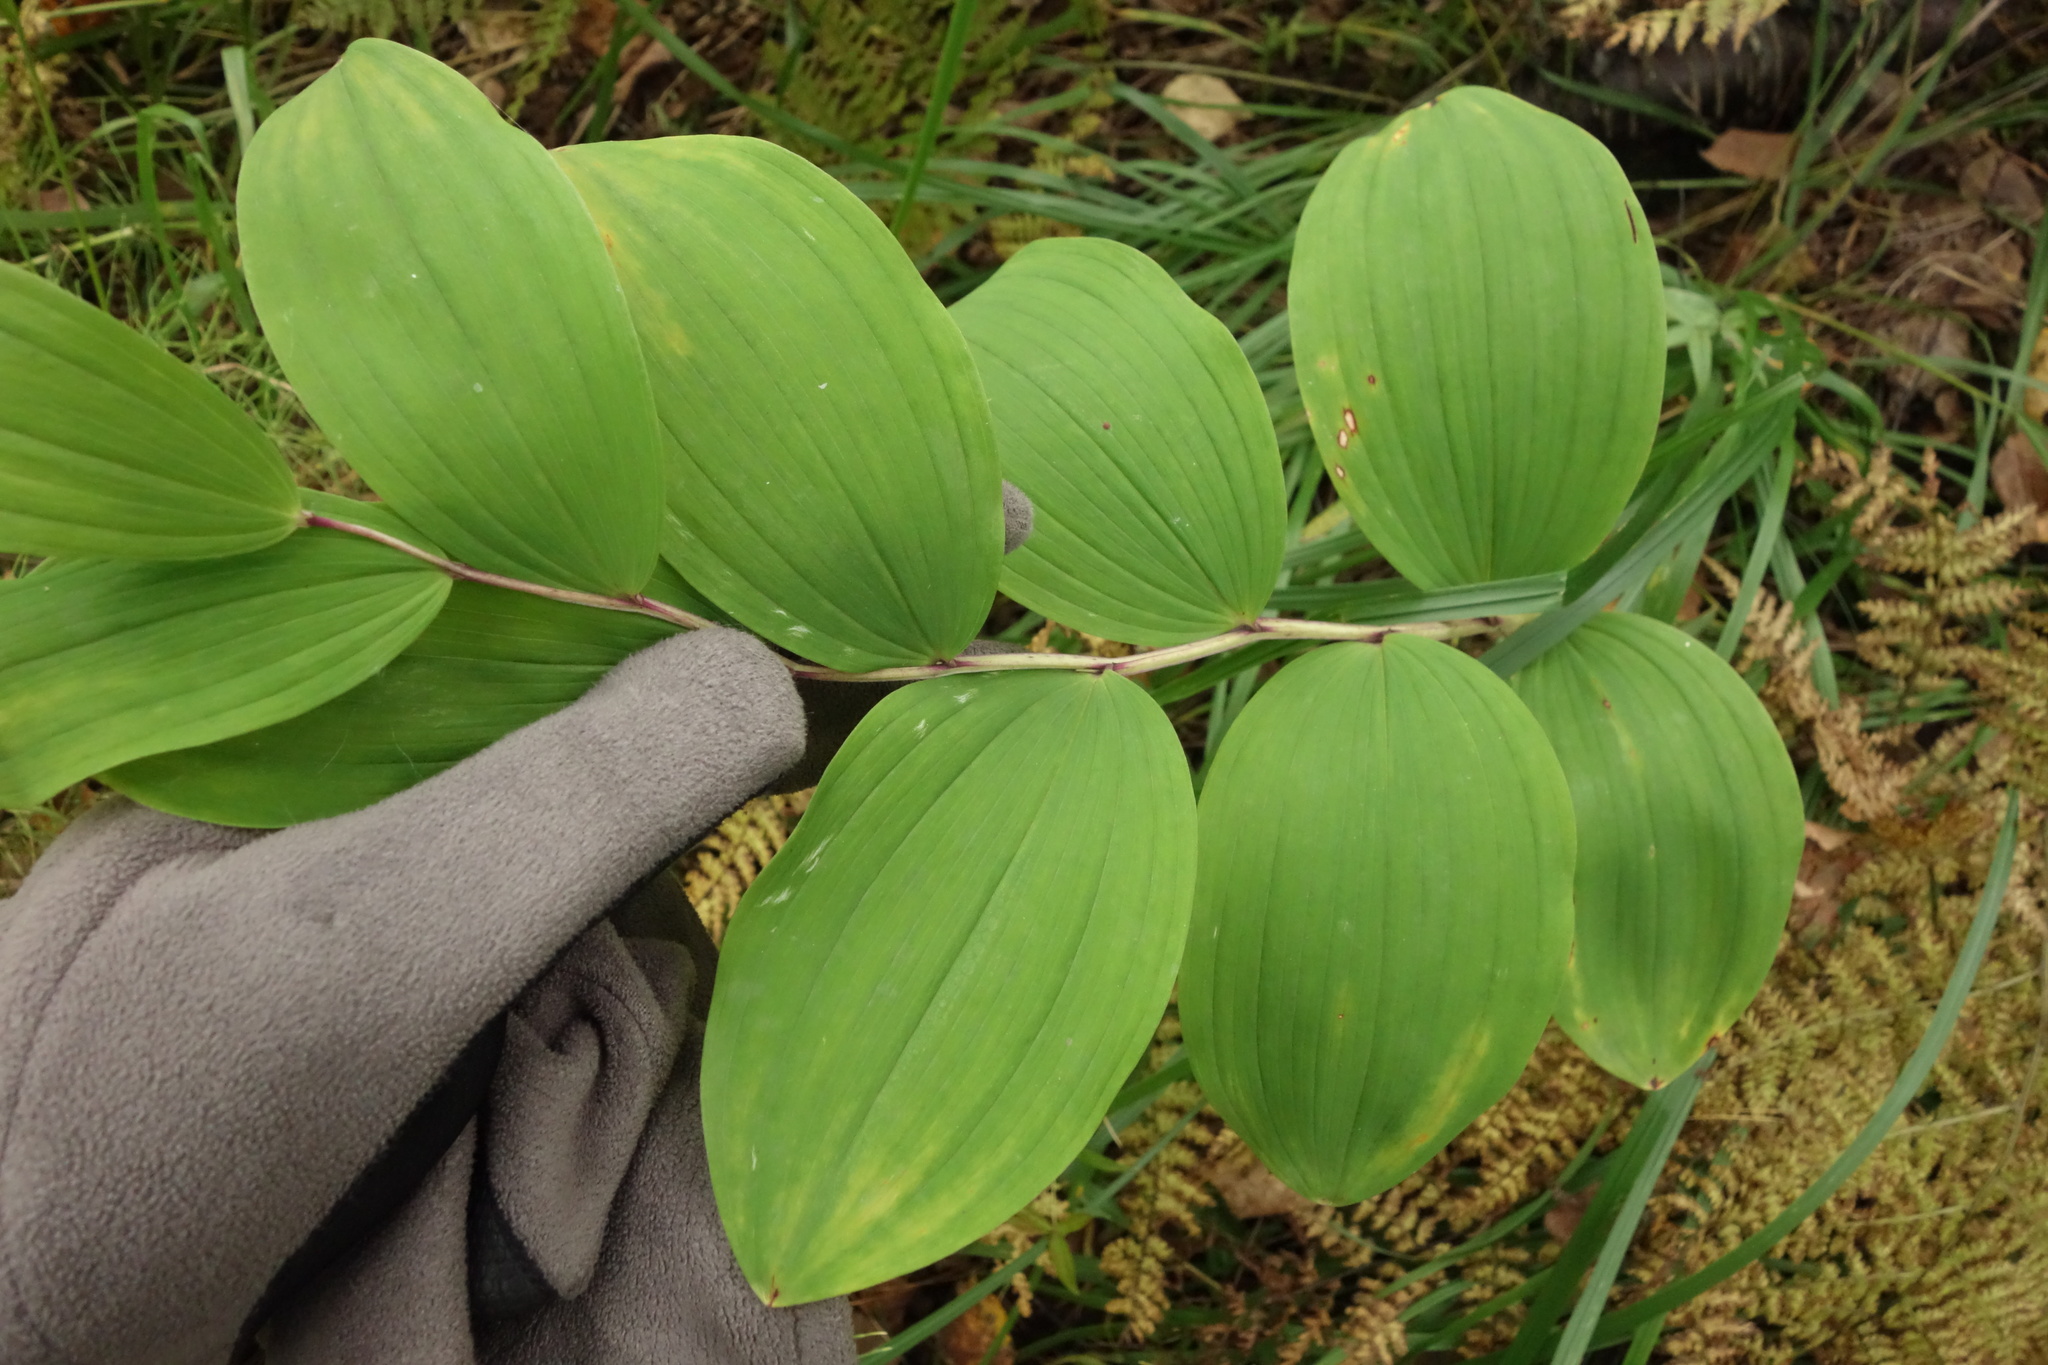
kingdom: Plantae
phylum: Tracheophyta
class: Liliopsida
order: Asparagales
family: Asparagaceae
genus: Polygonatum
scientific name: Polygonatum odoratum
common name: Angular solomon's-seal
